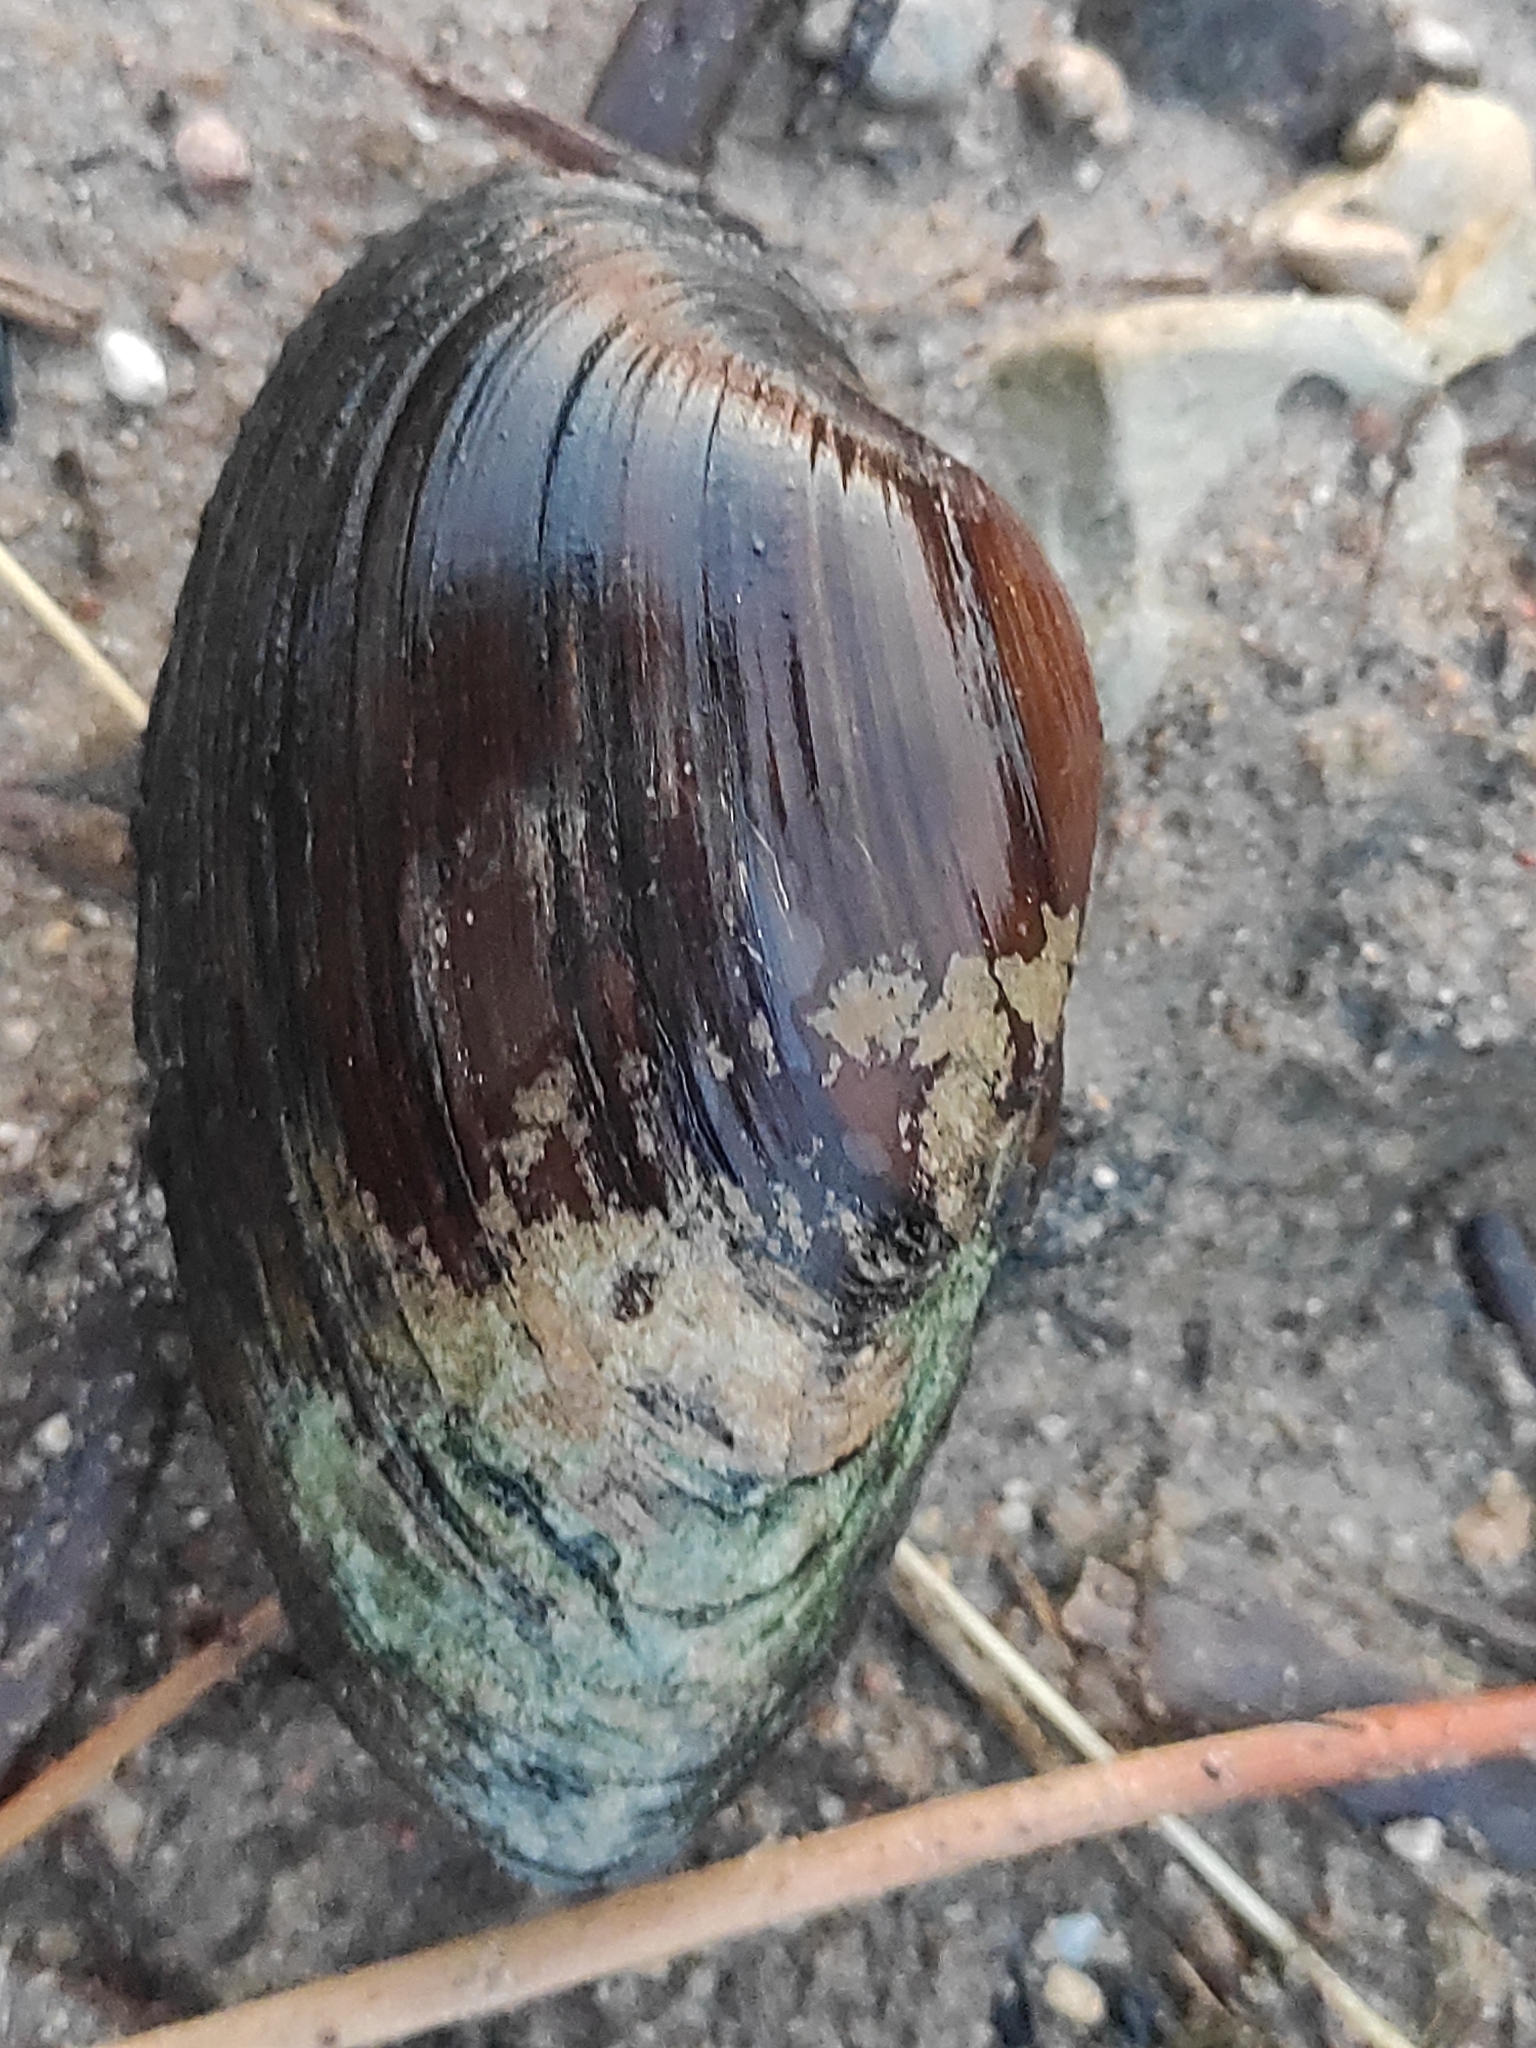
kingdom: Animalia
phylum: Mollusca
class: Bivalvia
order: Unionida
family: Unionidae
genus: Unio
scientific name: Unio tumidus
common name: Swollen river mussel
